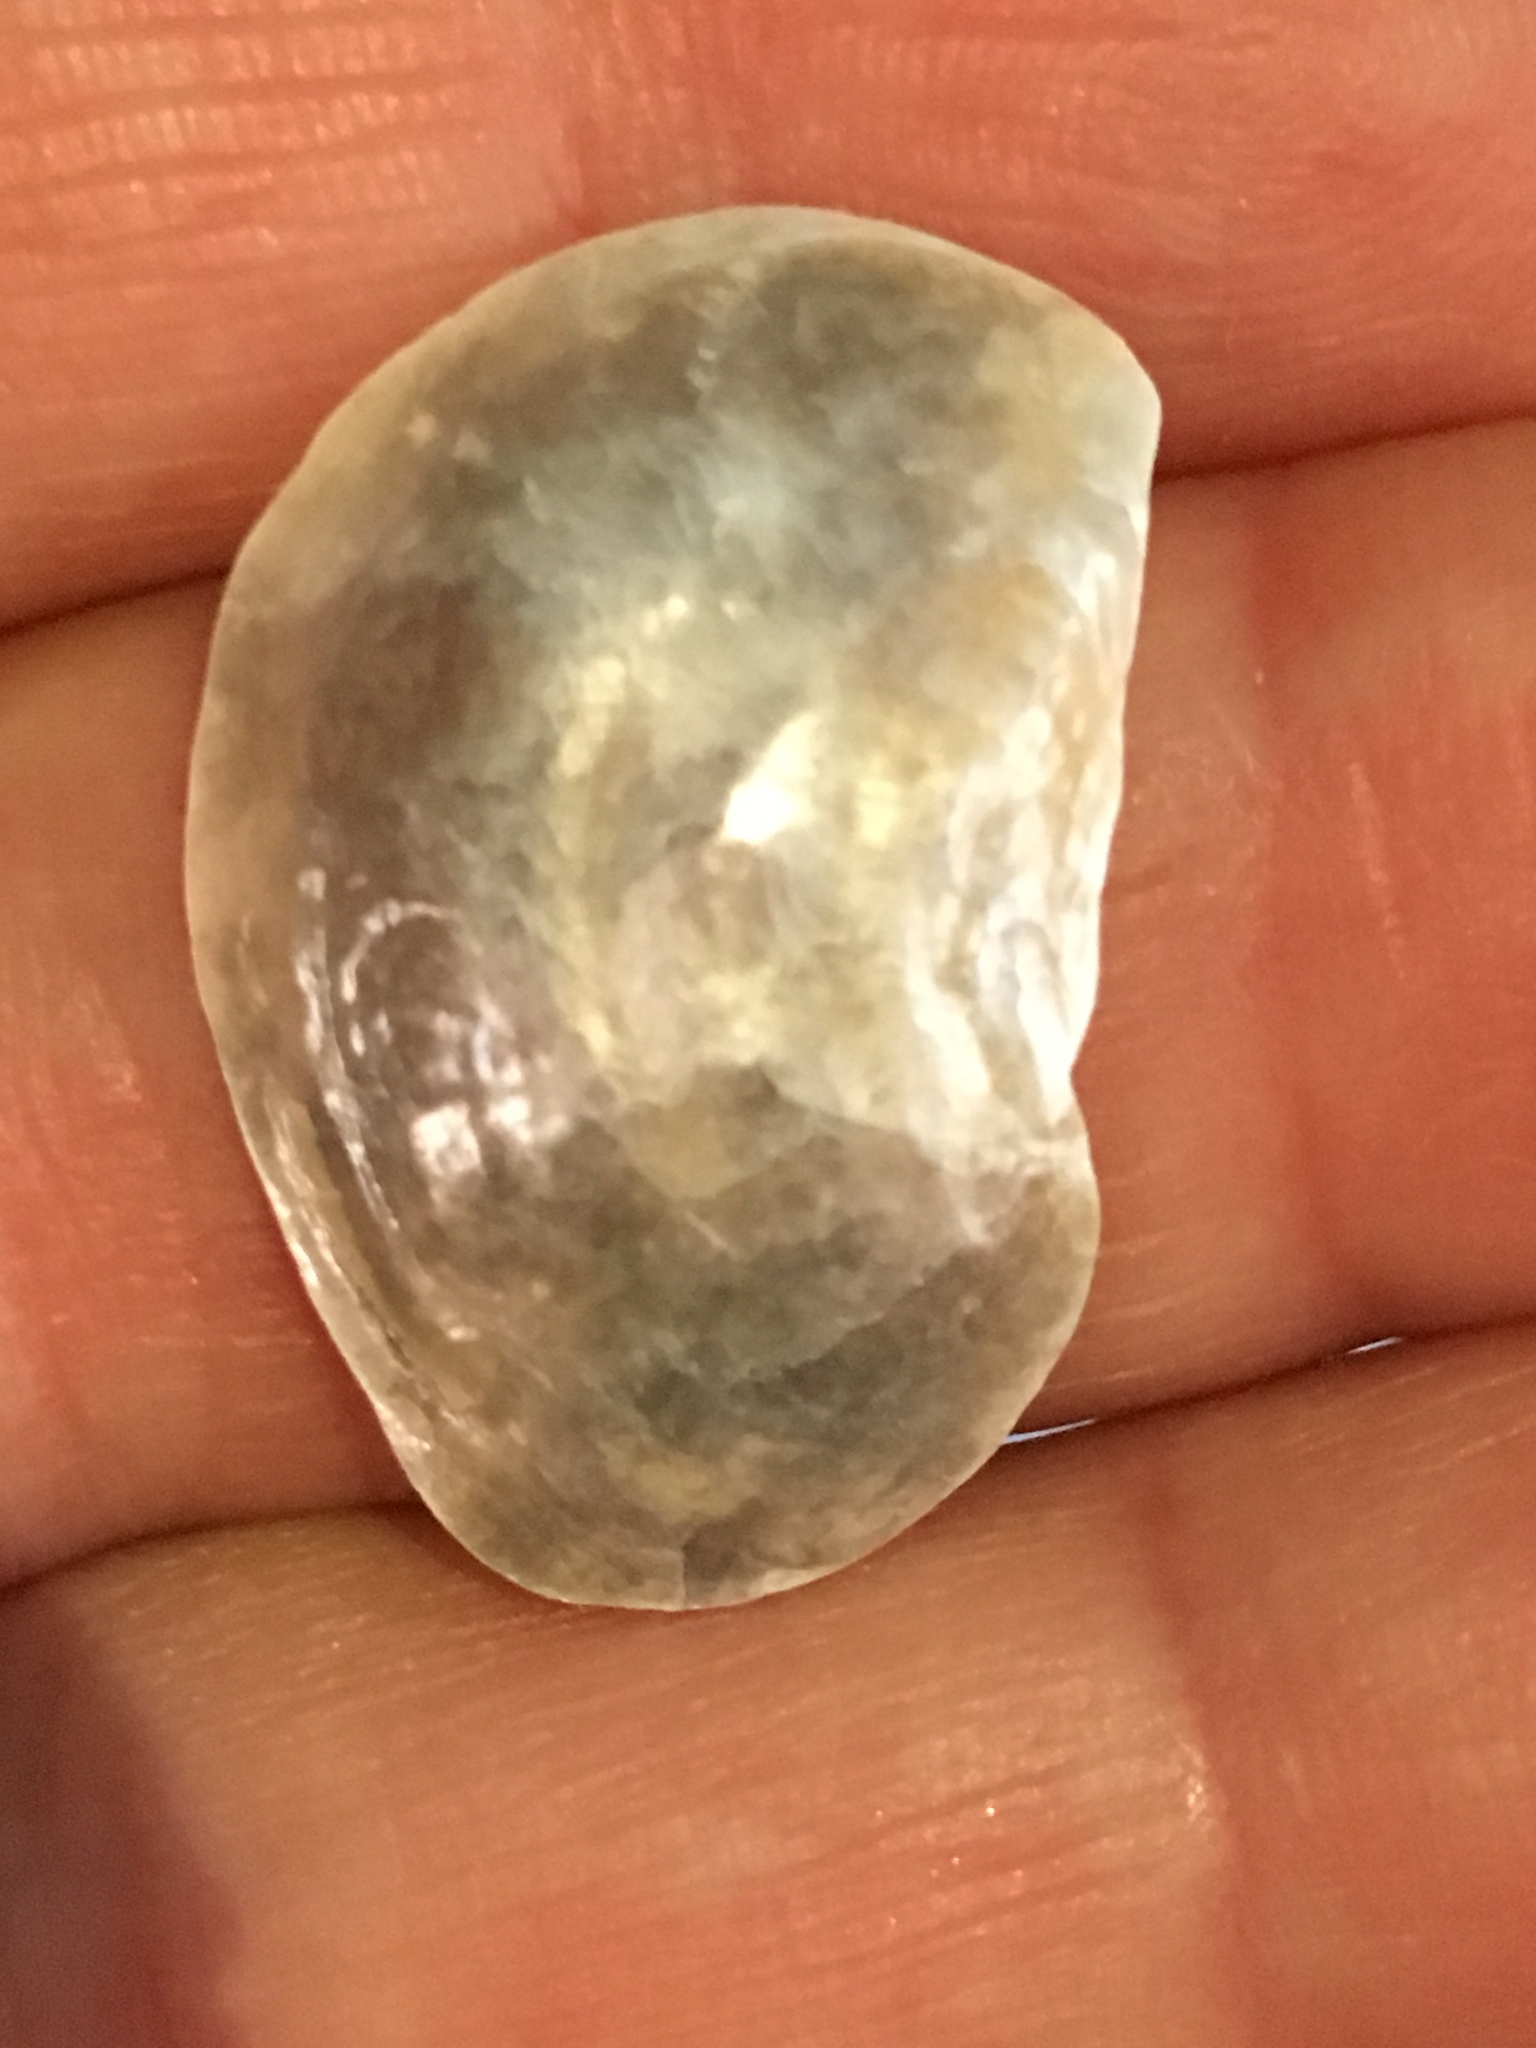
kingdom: Animalia
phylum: Mollusca
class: Bivalvia
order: Pectinida
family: Anomiidae
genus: Anomia
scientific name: Anomia simplex
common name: Common jingle shell
